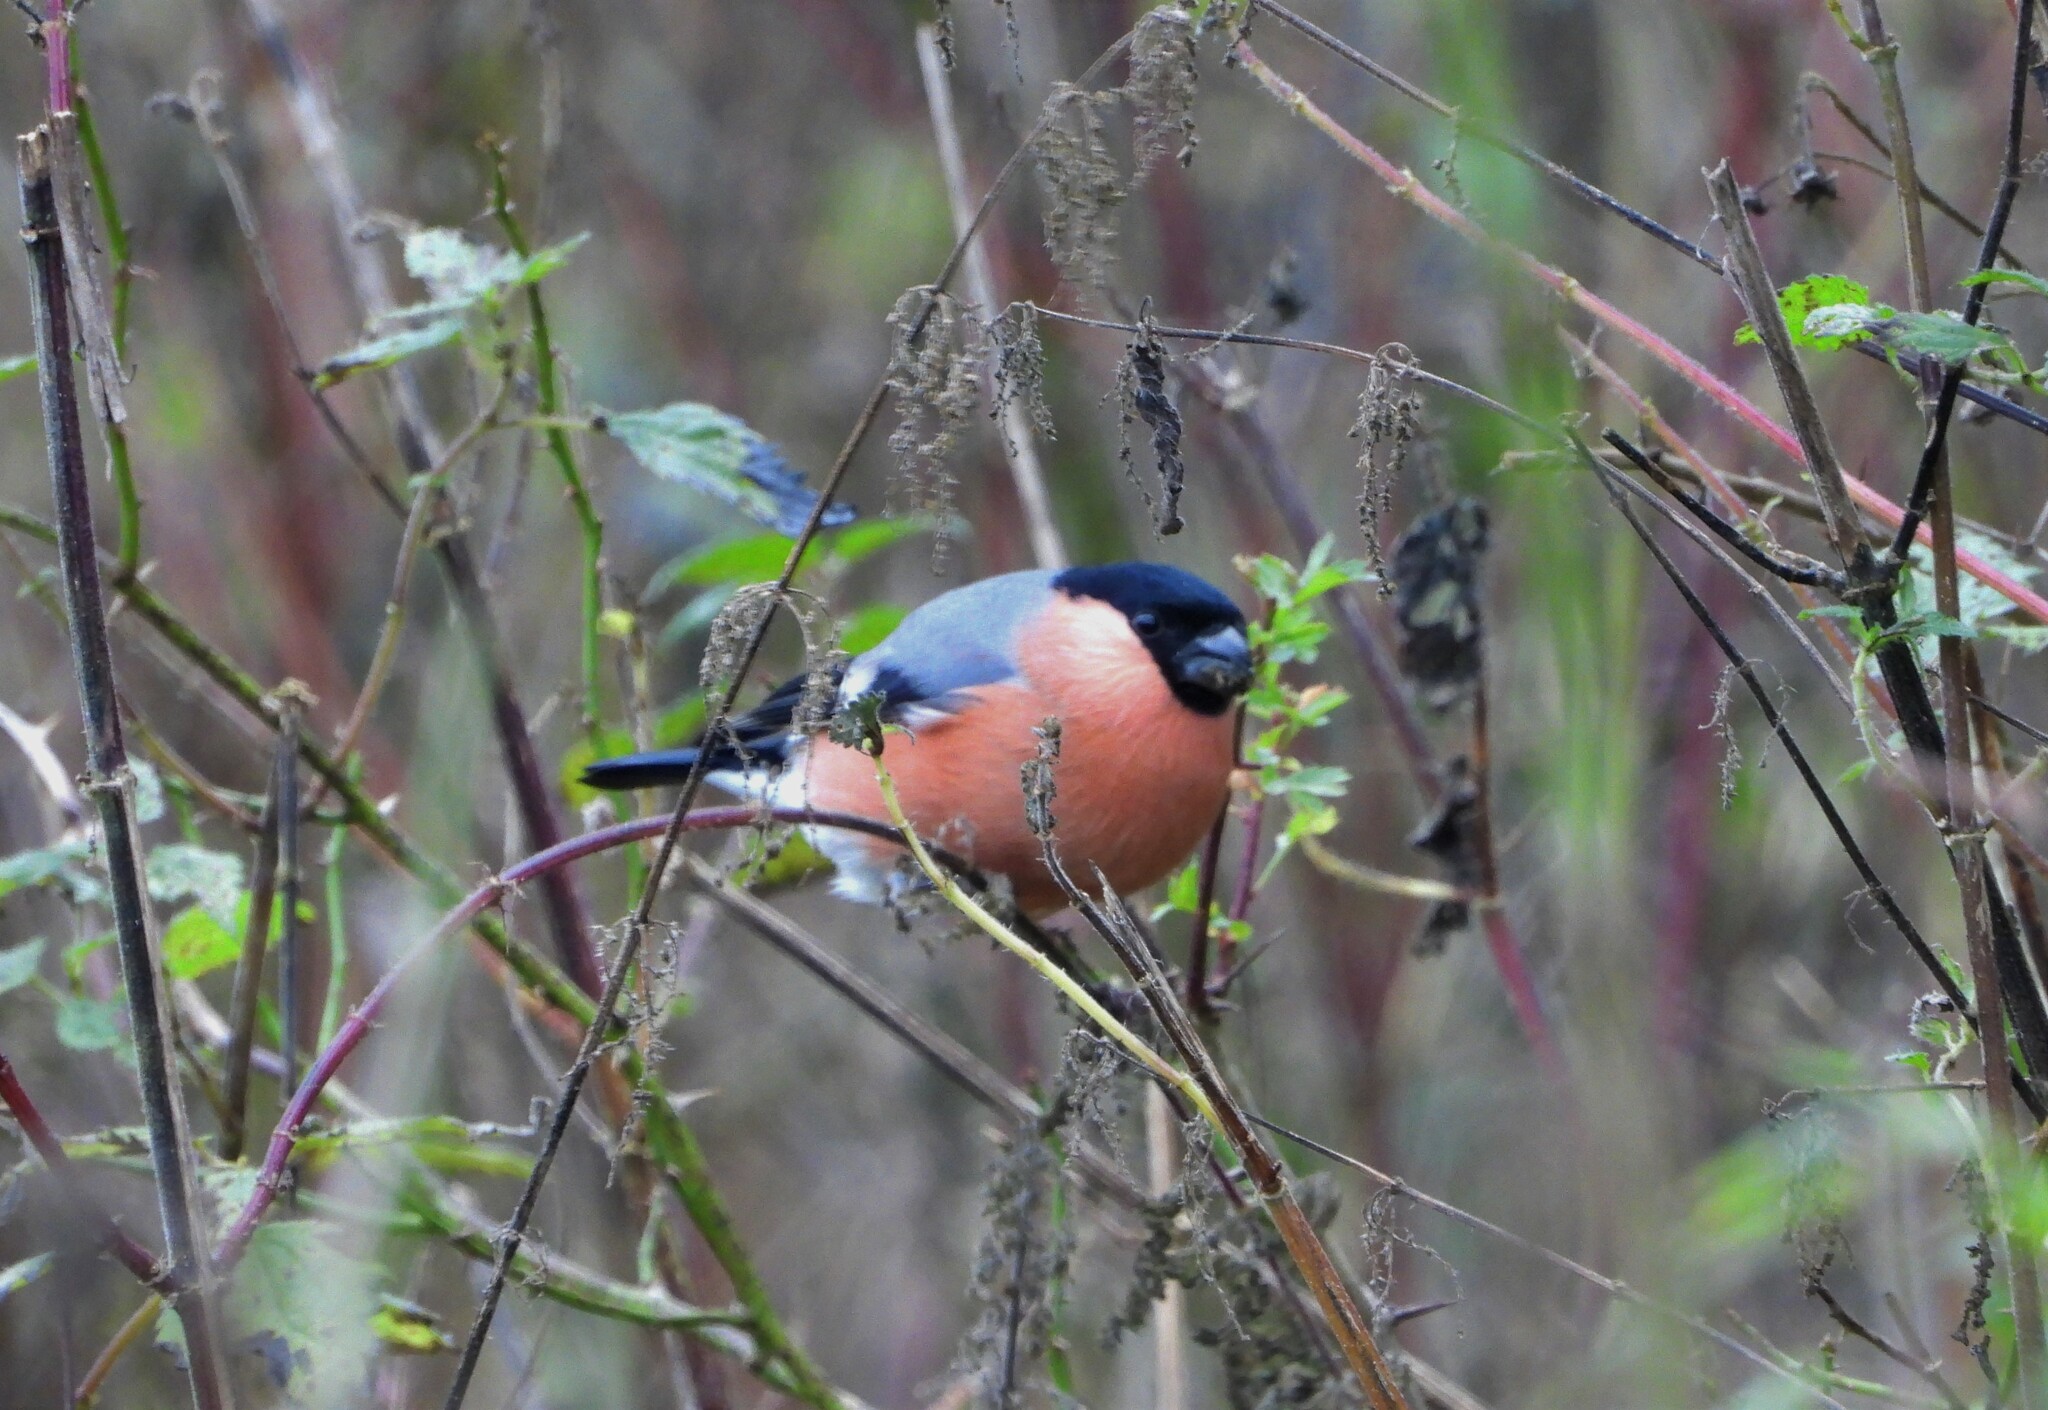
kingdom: Animalia
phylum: Chordata
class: Aves
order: Passeriformes
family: Fringillidae
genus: Pyrrhula
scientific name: Pyrrhula pyrrhula
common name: Eurasian bullfinch
